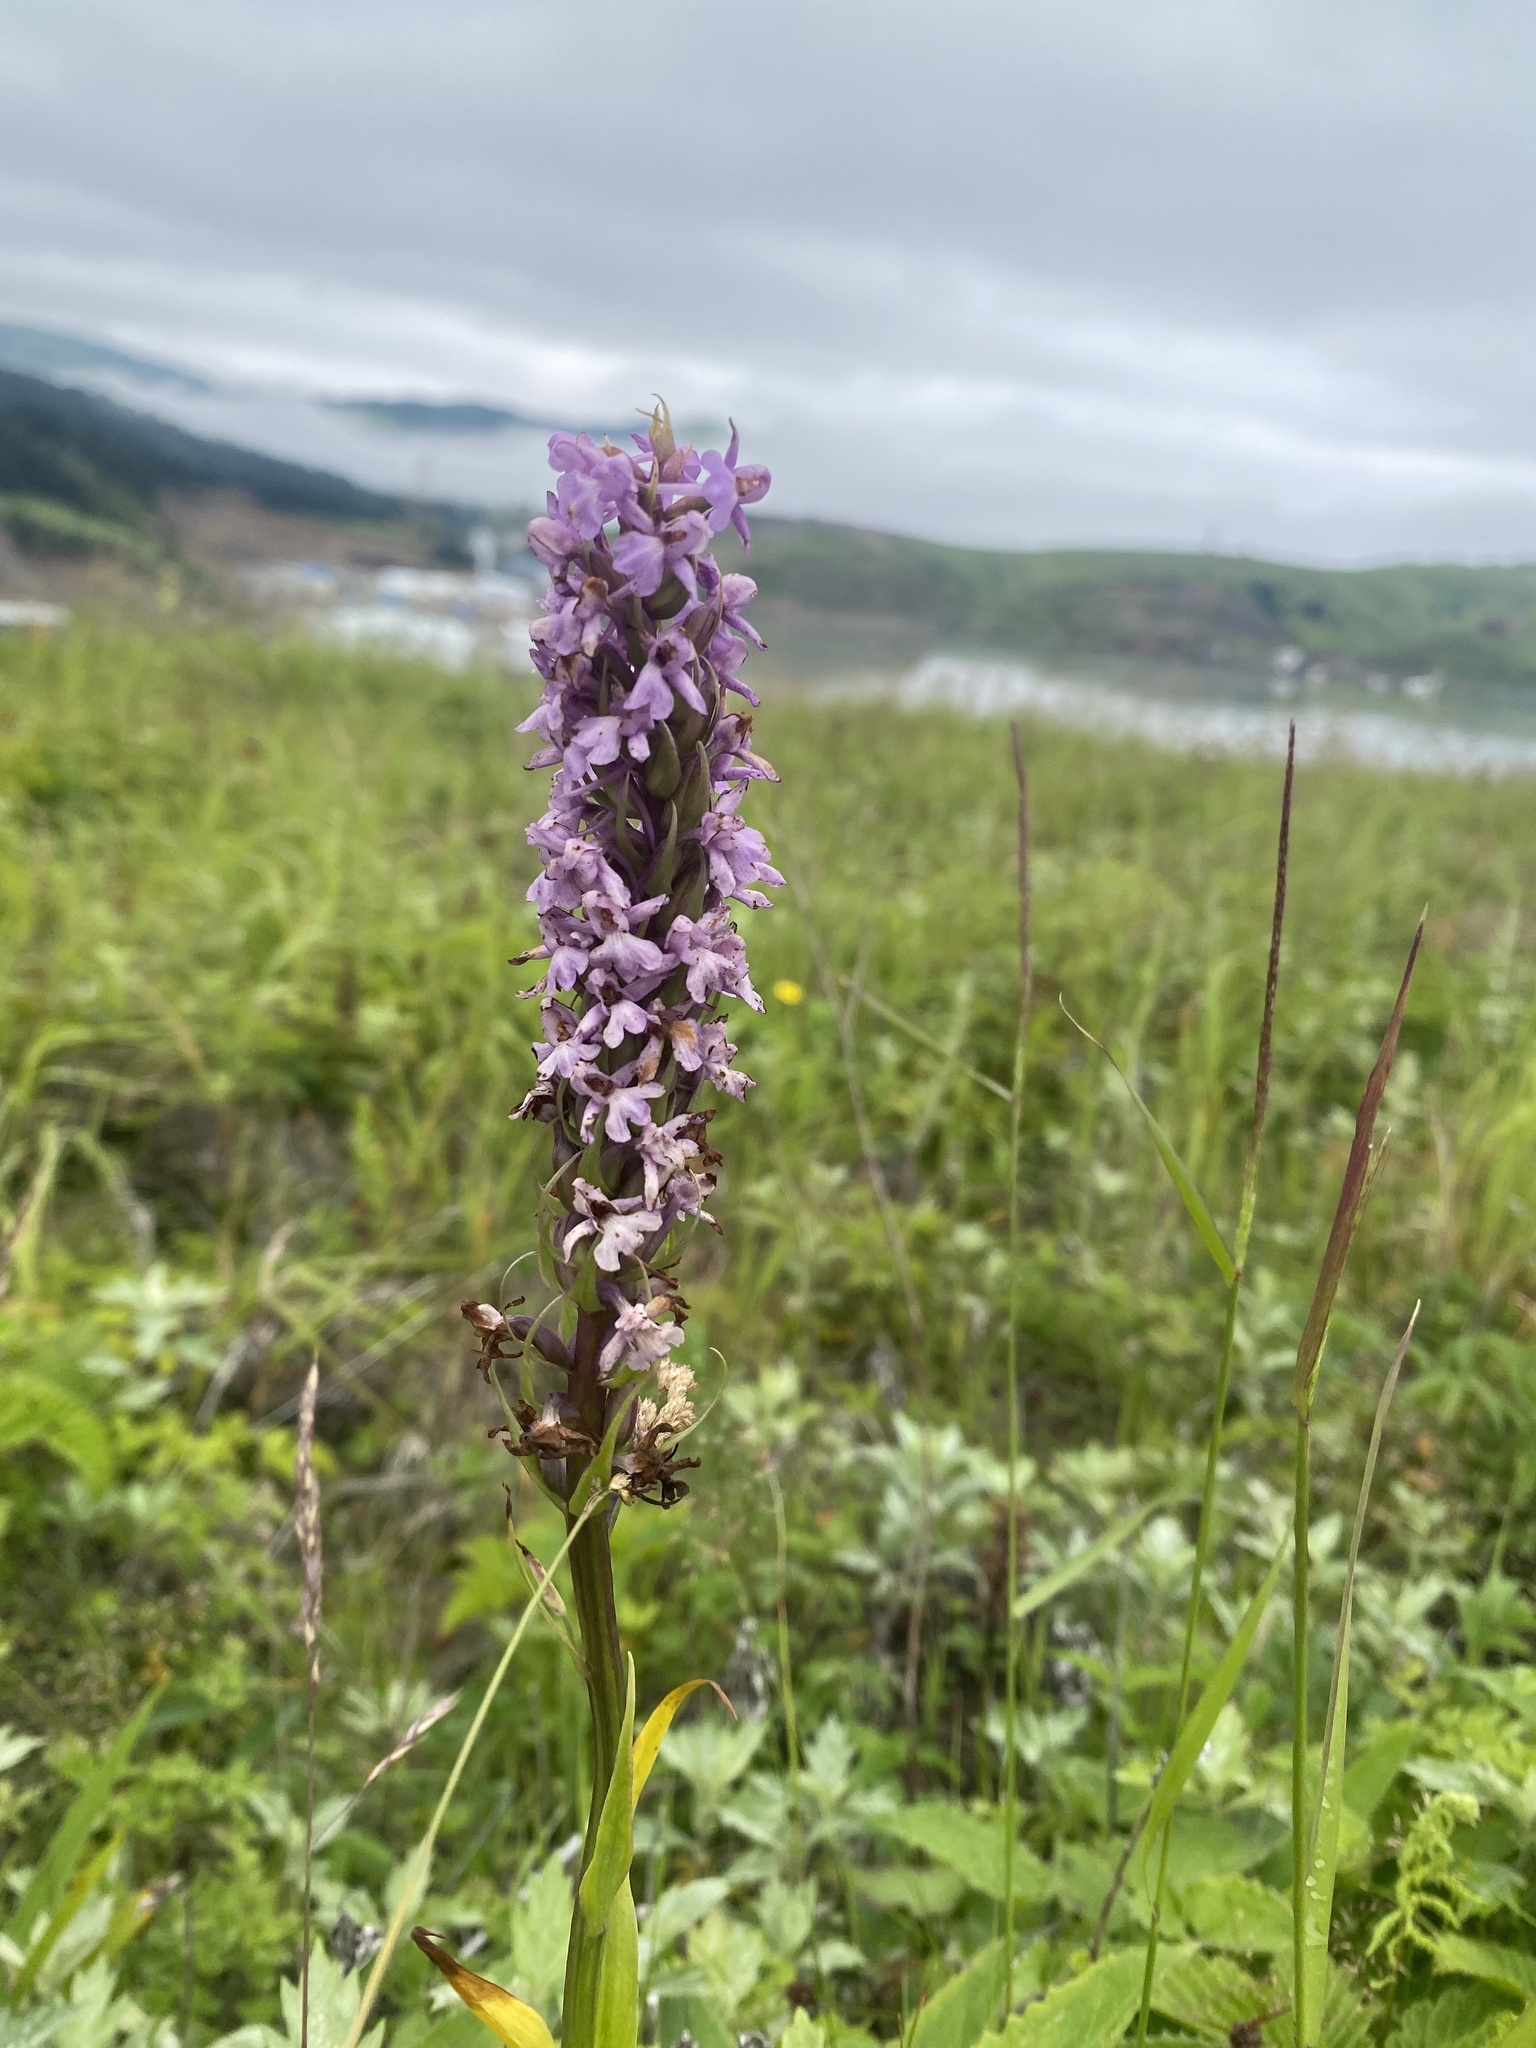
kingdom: Plantae
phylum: Tracheophyta
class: Liliopsida
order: Asparagales
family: Orchidaceae
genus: Gymnadenia
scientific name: Gymnadenia conopsea
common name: Fragrant orchid
